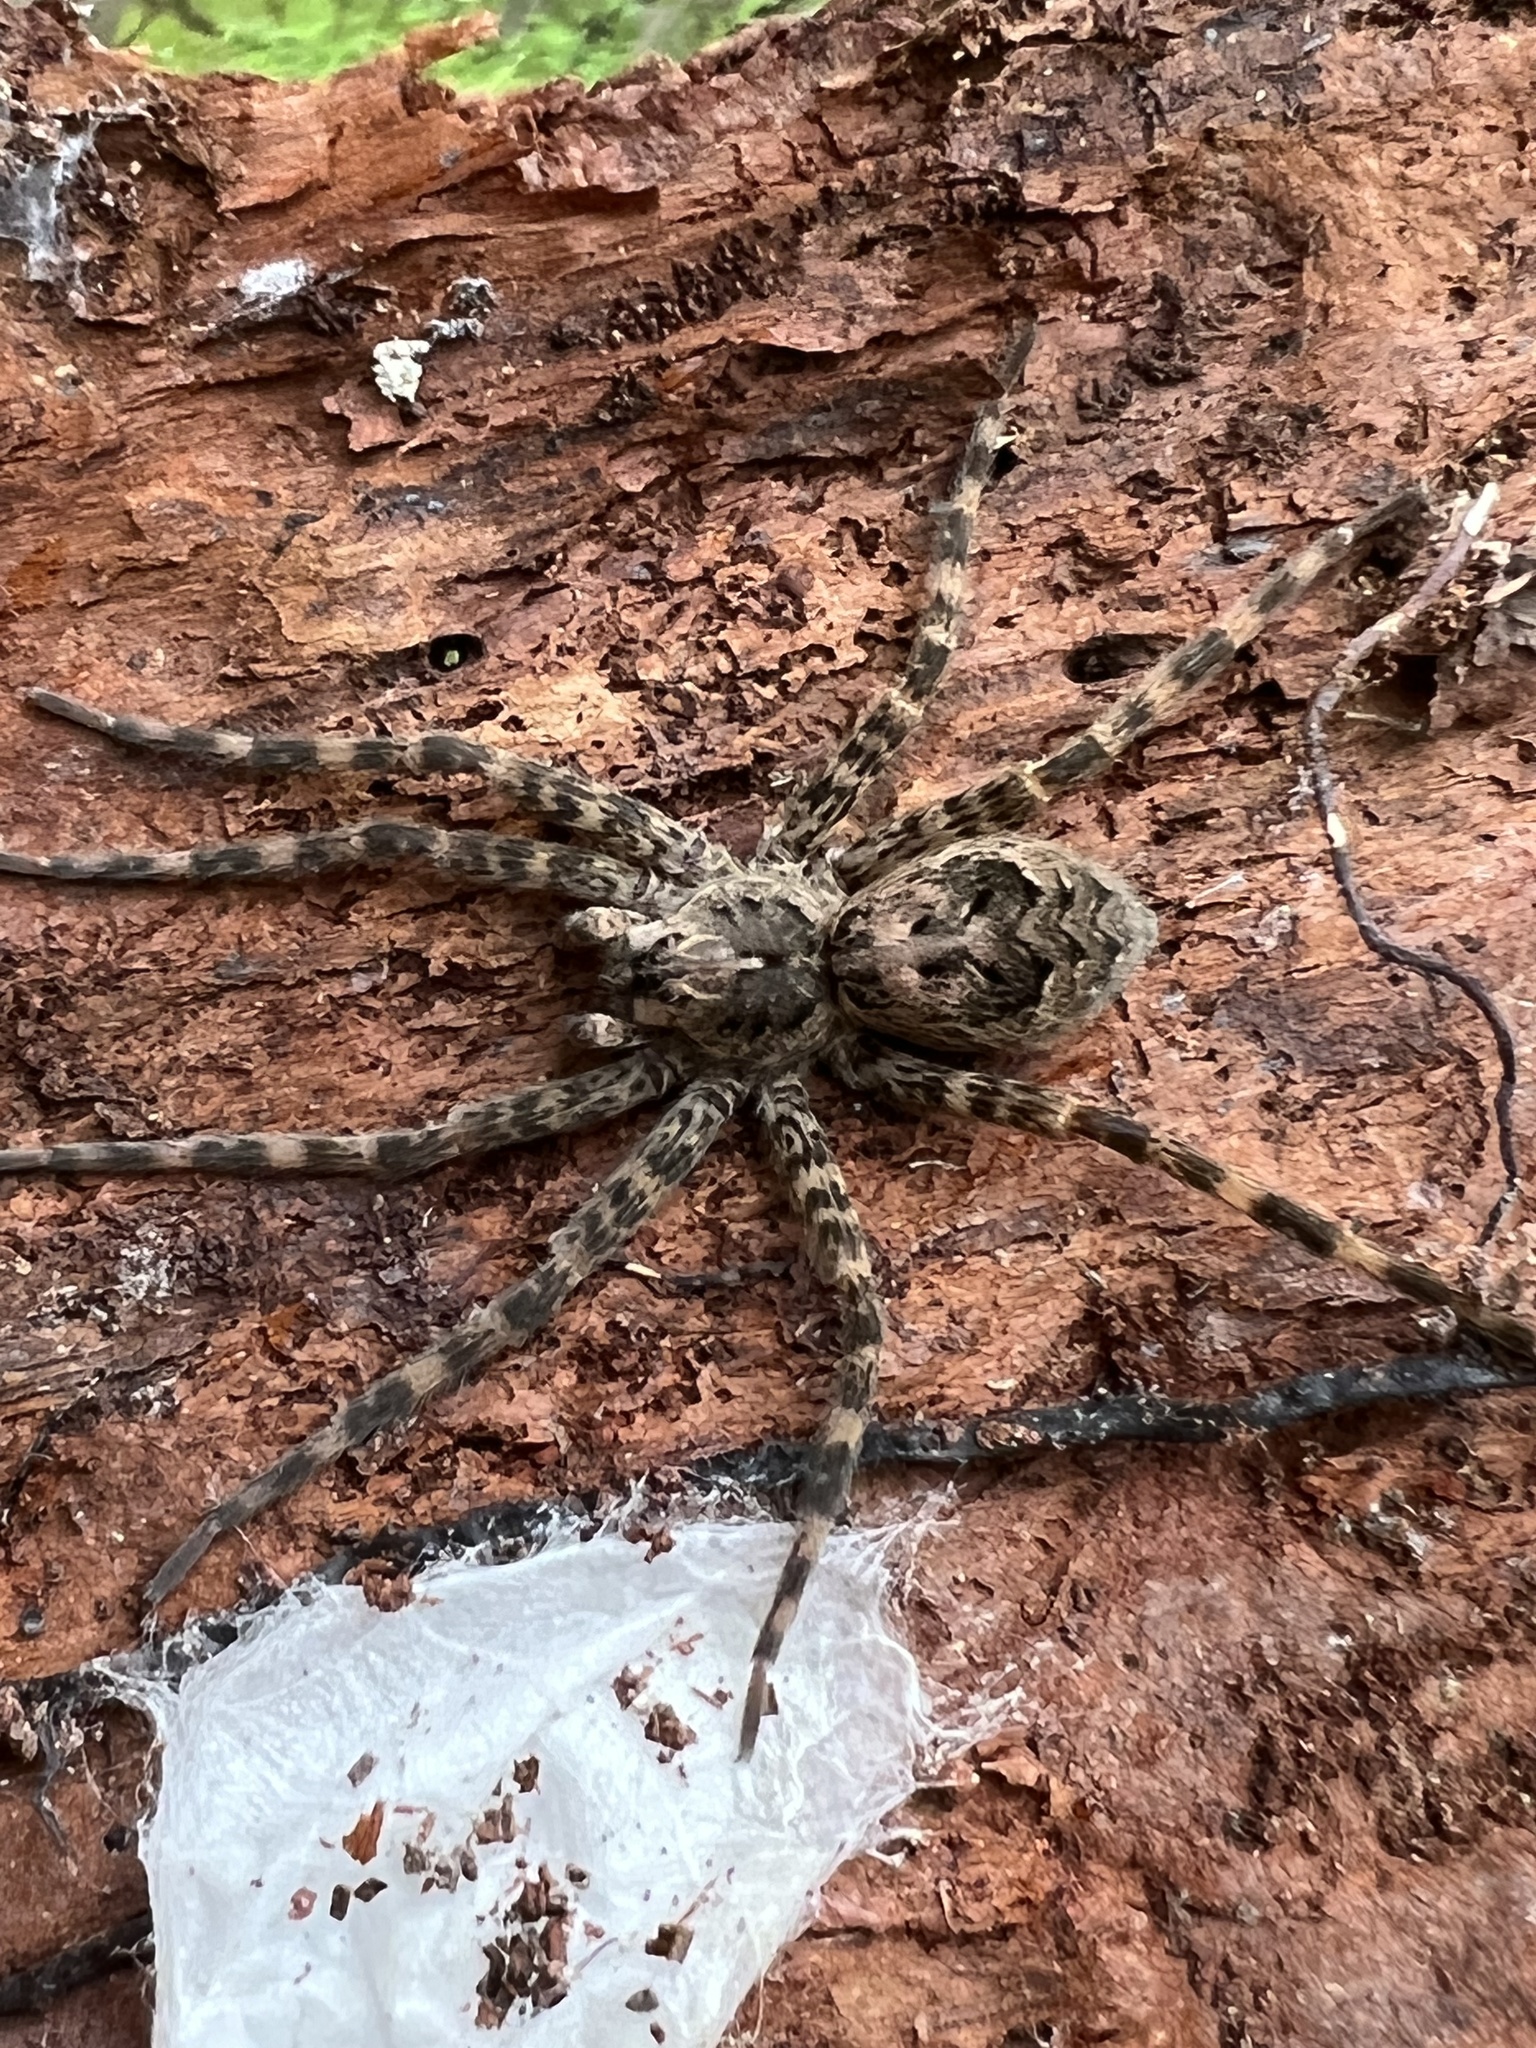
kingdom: Animalia
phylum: Arthropoda
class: Arachnida
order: Araneae
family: Pisauridae
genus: Dolomedes
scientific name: Dolomedes tenebrosus
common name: Dark fishing spider
